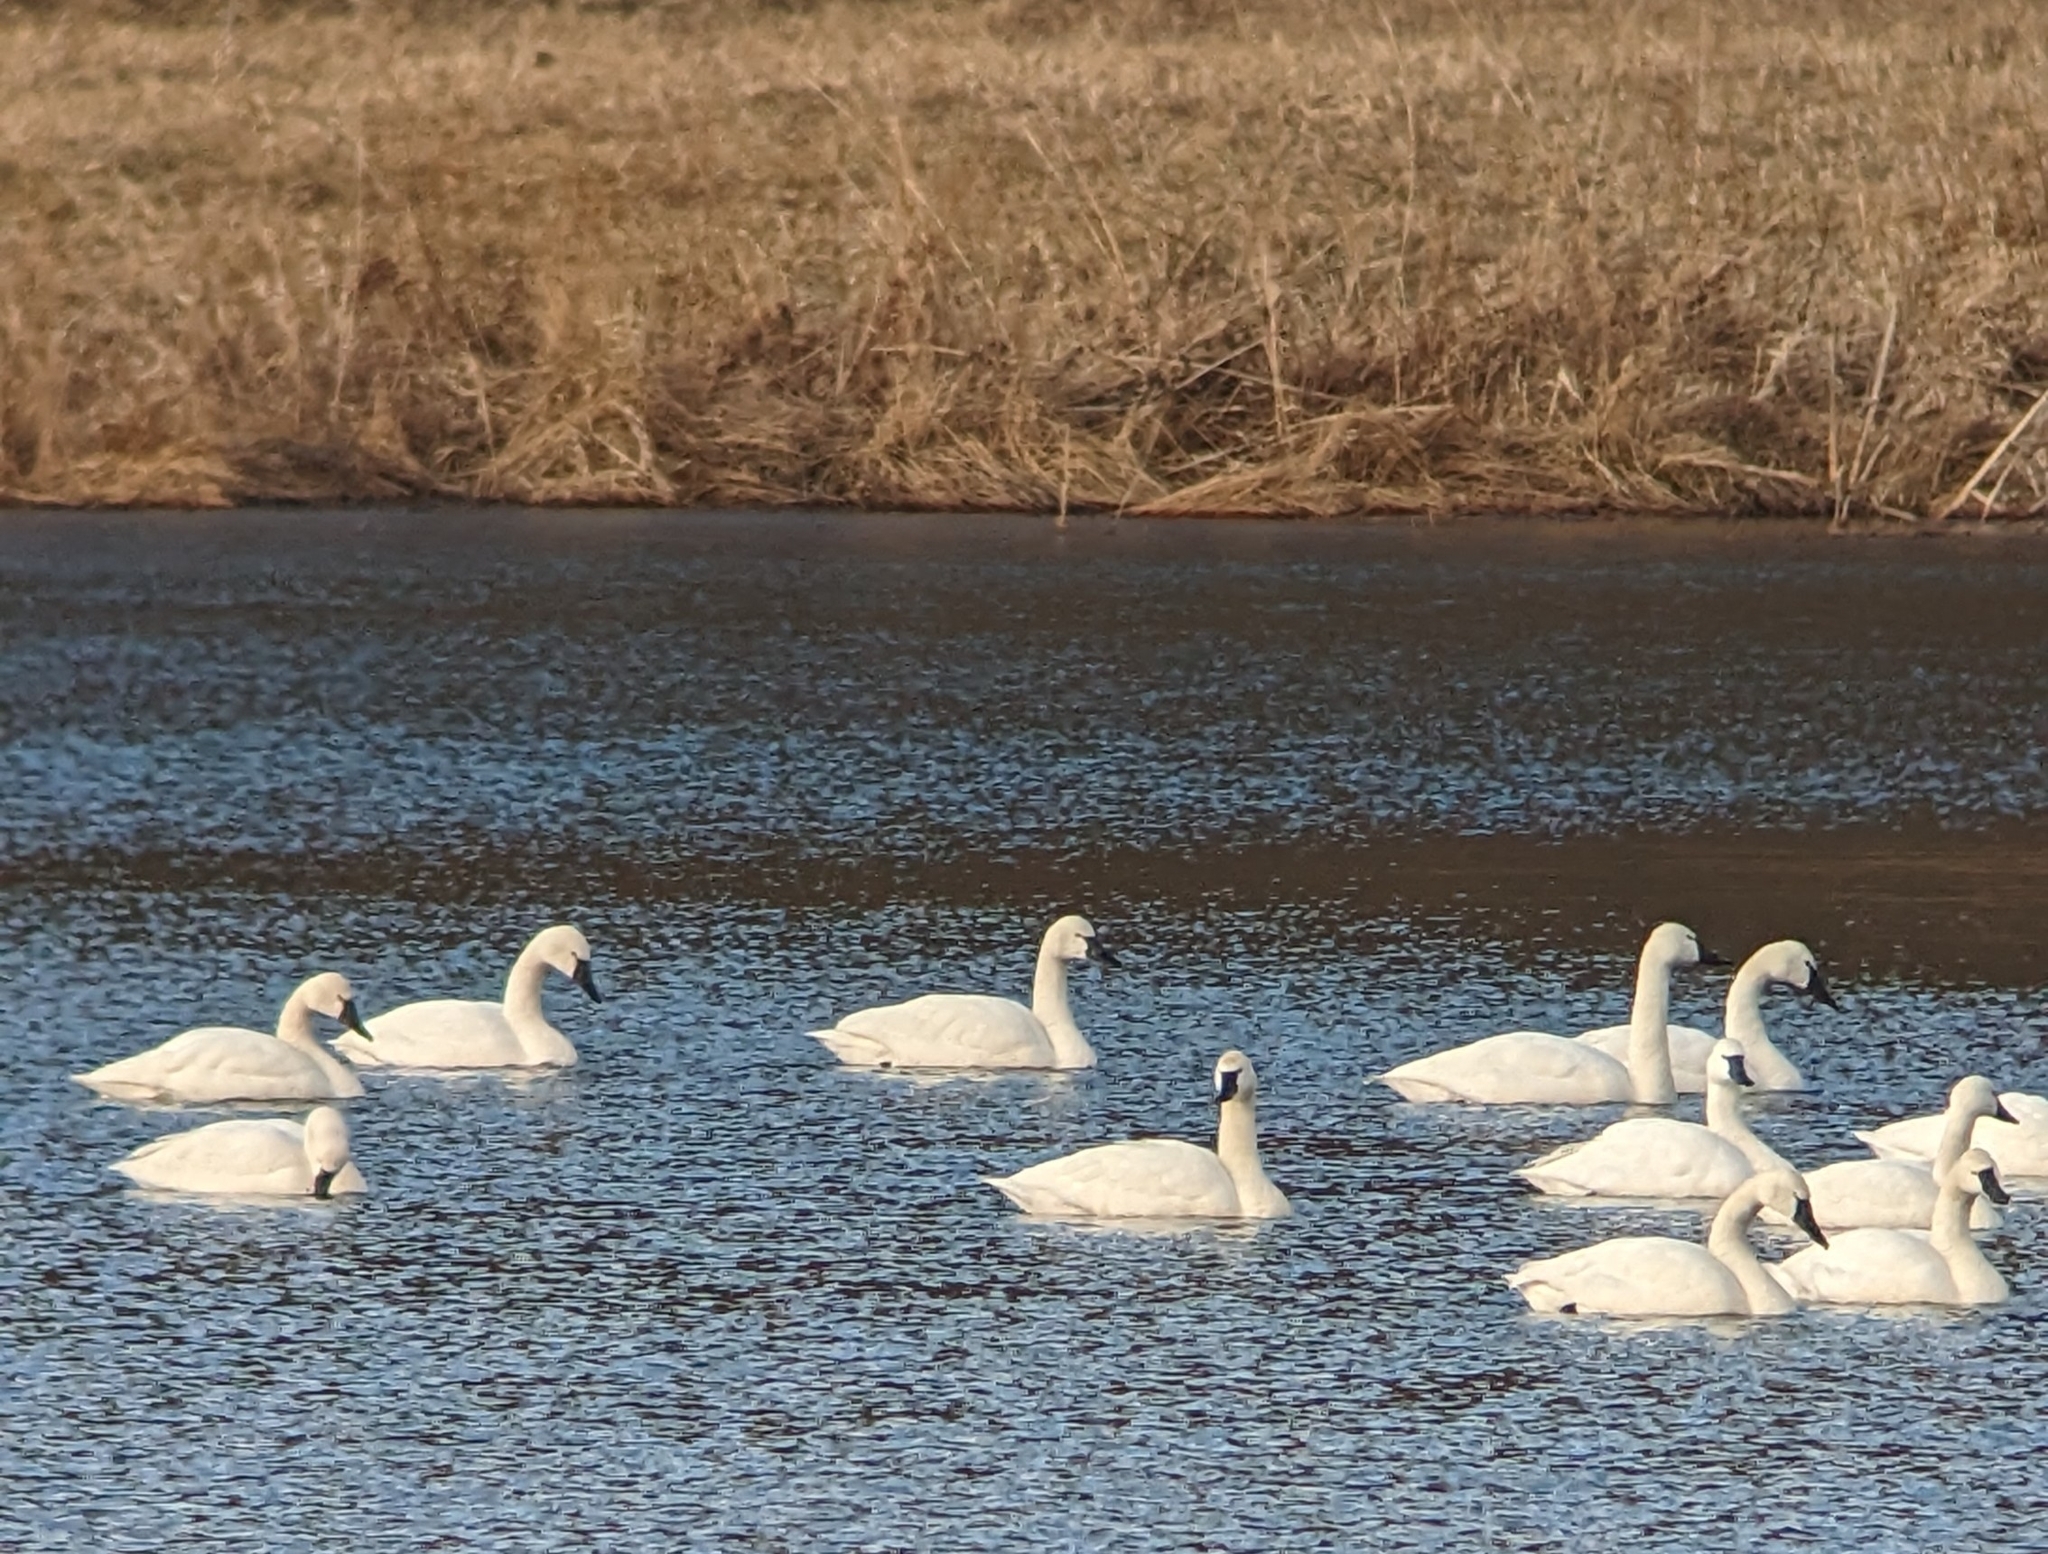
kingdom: Animalia
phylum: Chordata
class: Aves
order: Anseriformes
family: Anatidae
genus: Cygnus
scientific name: Cygnus columbianus
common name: Tundra swan
